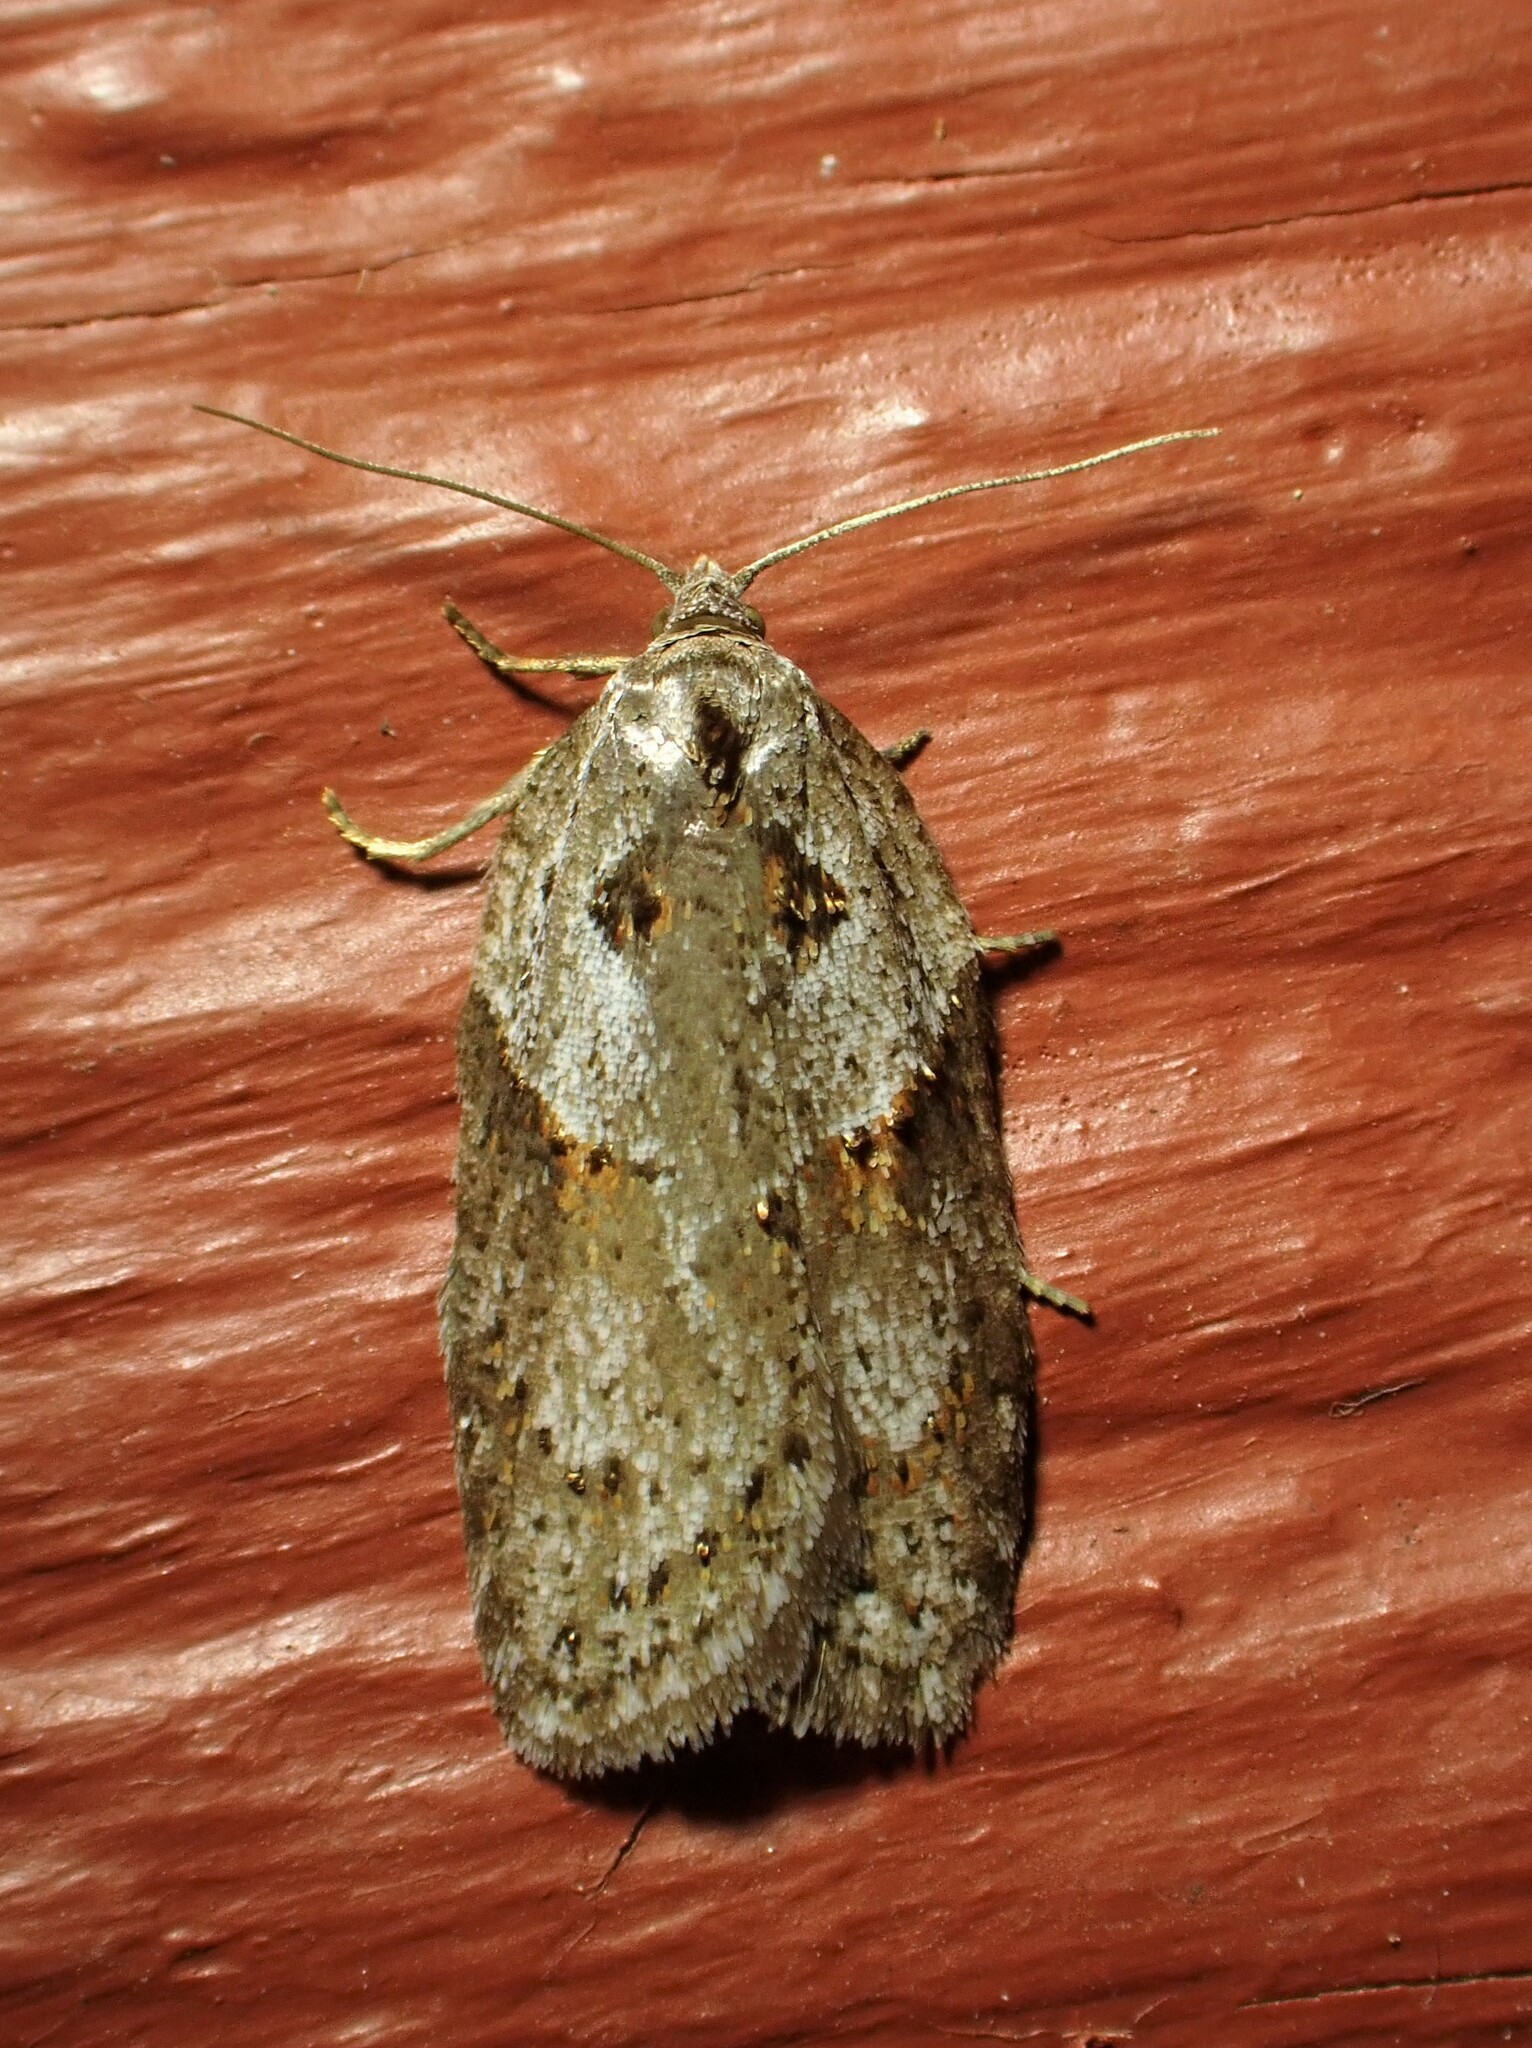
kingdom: Animalia
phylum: Arthropoda
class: Insecta
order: Lepidoptera
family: Tortricidae
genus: Acleris
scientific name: Acleris maculidorsana
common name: Stained-back leafroller moth
